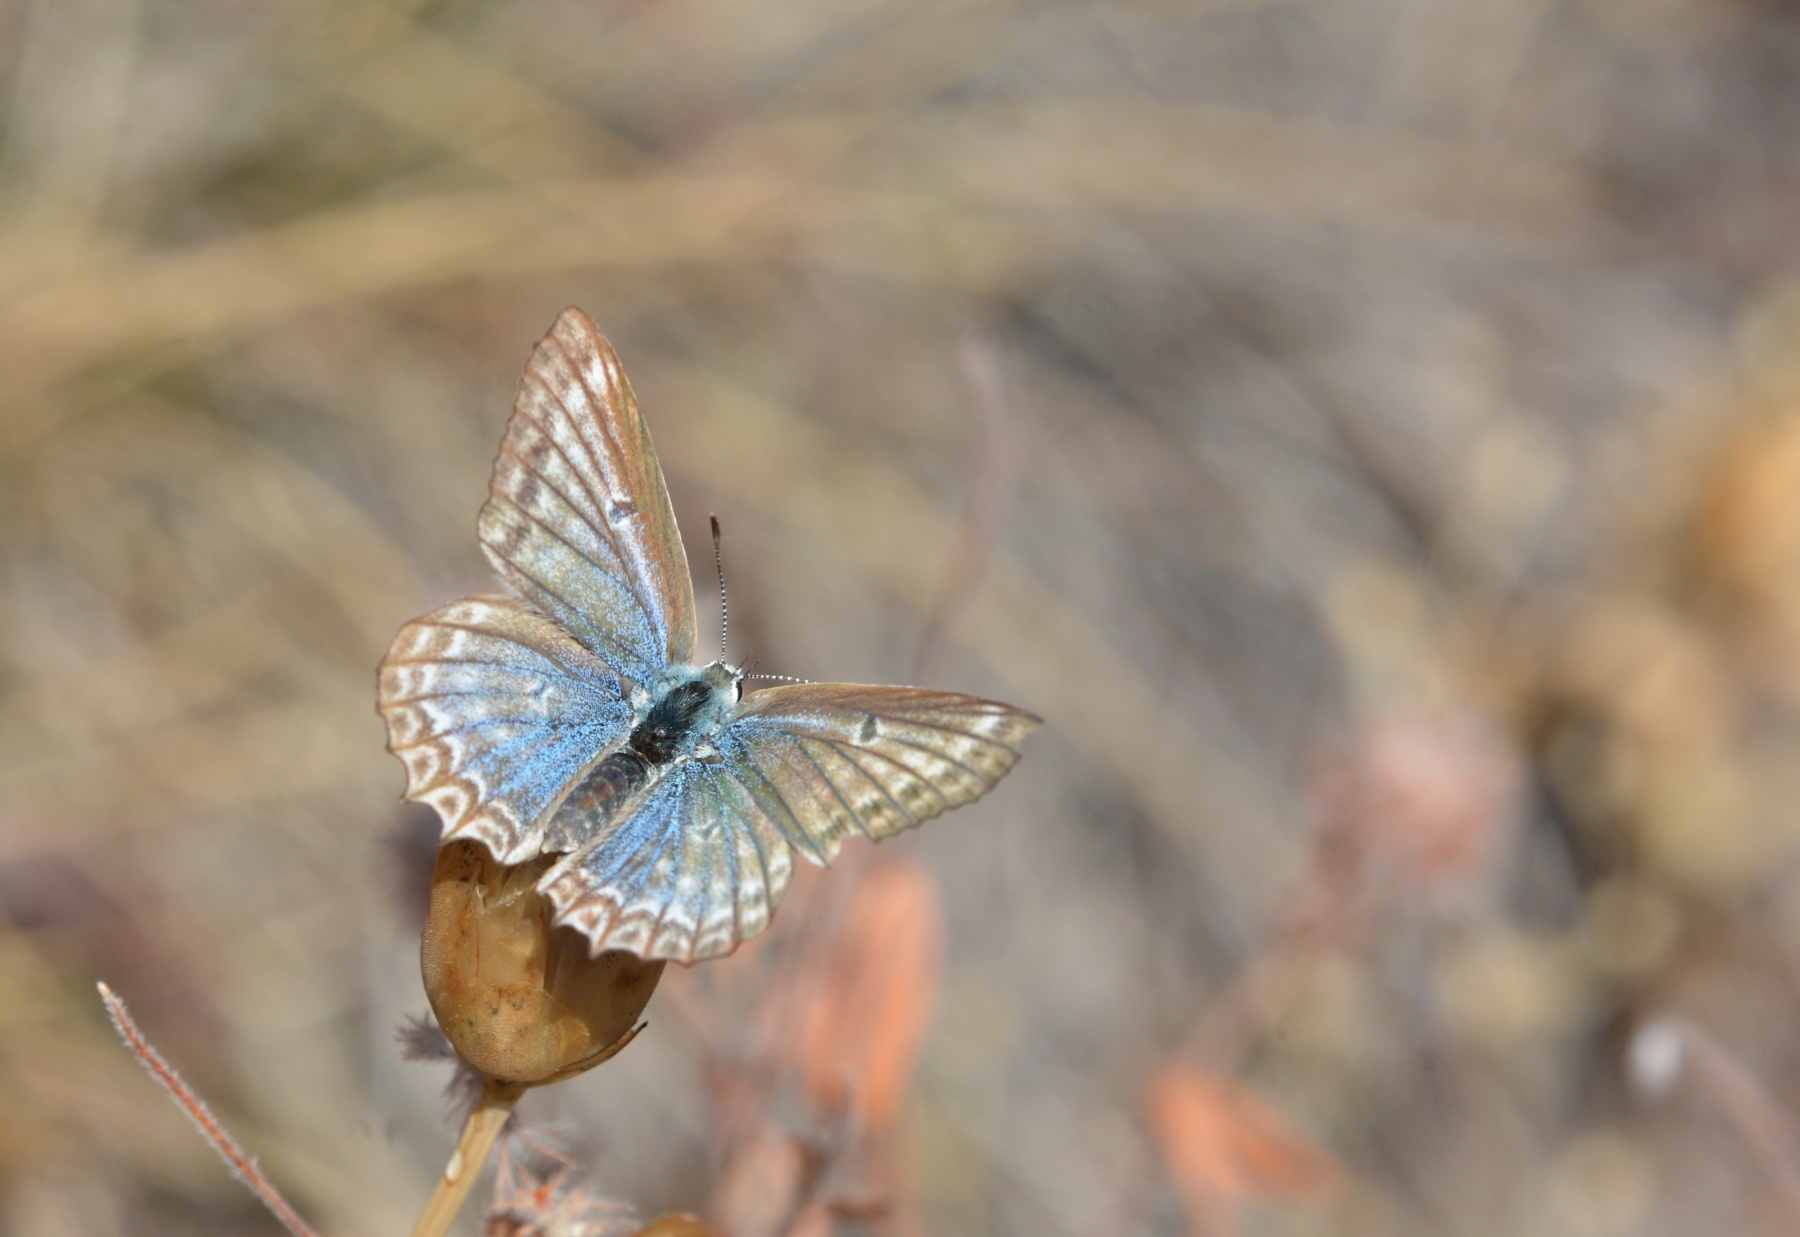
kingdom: Animalia
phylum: Arthropoda
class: Insecta
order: Lepidoptera
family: Lycaenidae
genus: Polyommatus
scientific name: Polyommatus daphnis
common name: Meleager's blue
